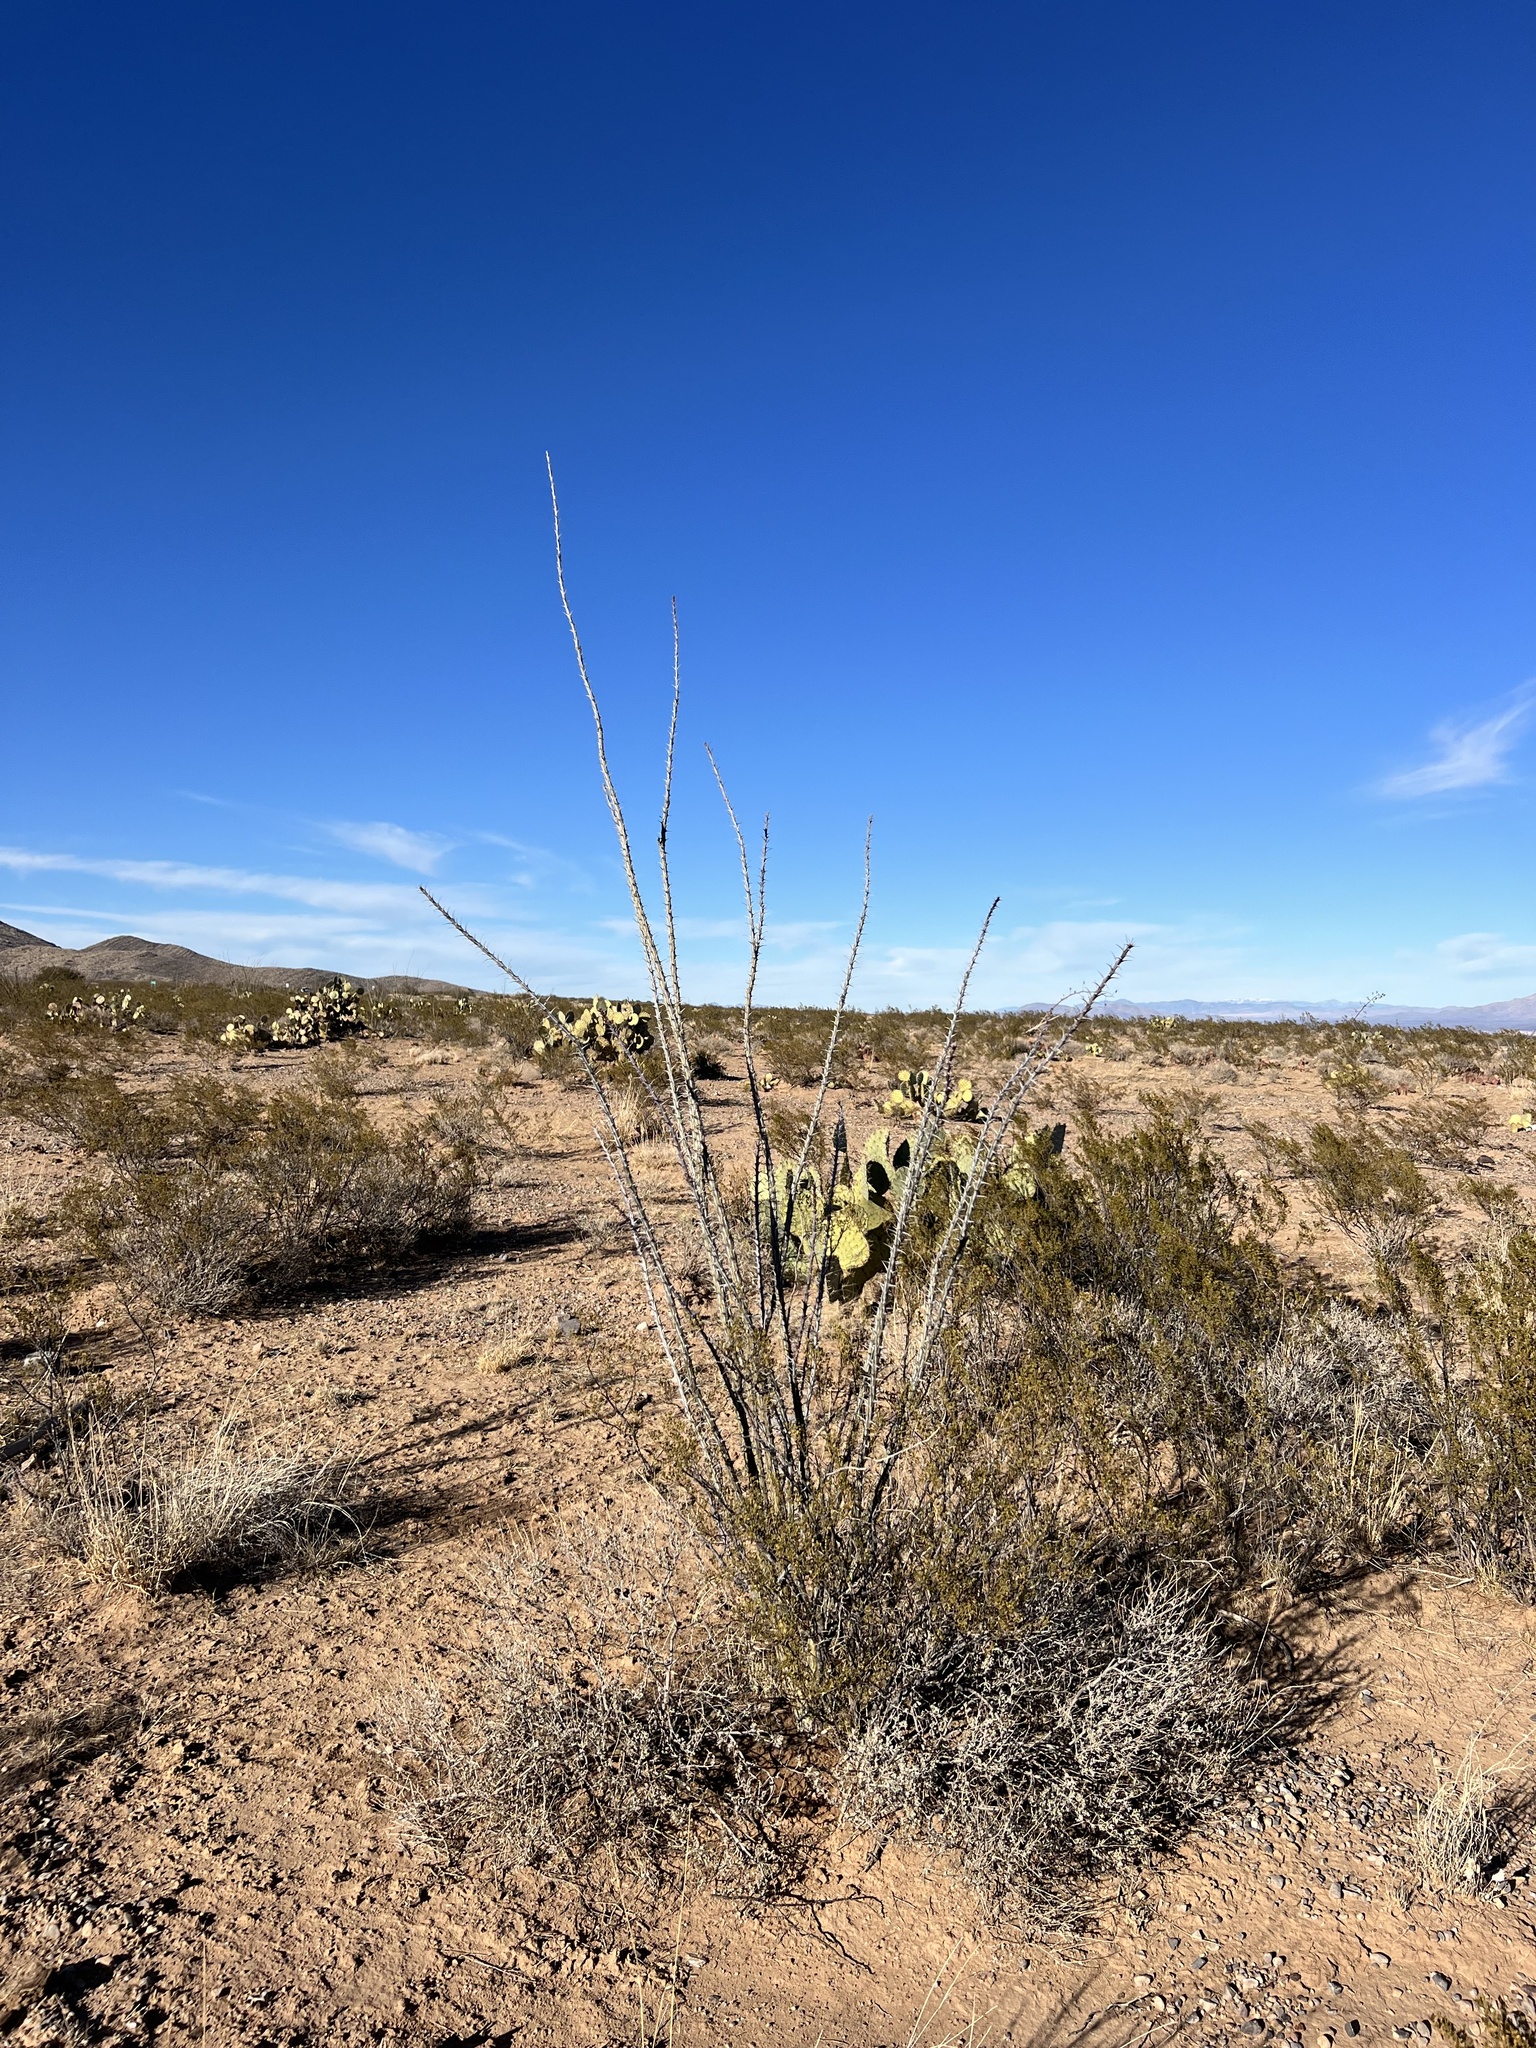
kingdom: Plantae
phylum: Tracheophyta
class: Magnoliopsida
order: Ericales
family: Fouquieriaceae
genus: Fouquieria
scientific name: Fouquieria splendens
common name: Vine-cactus
